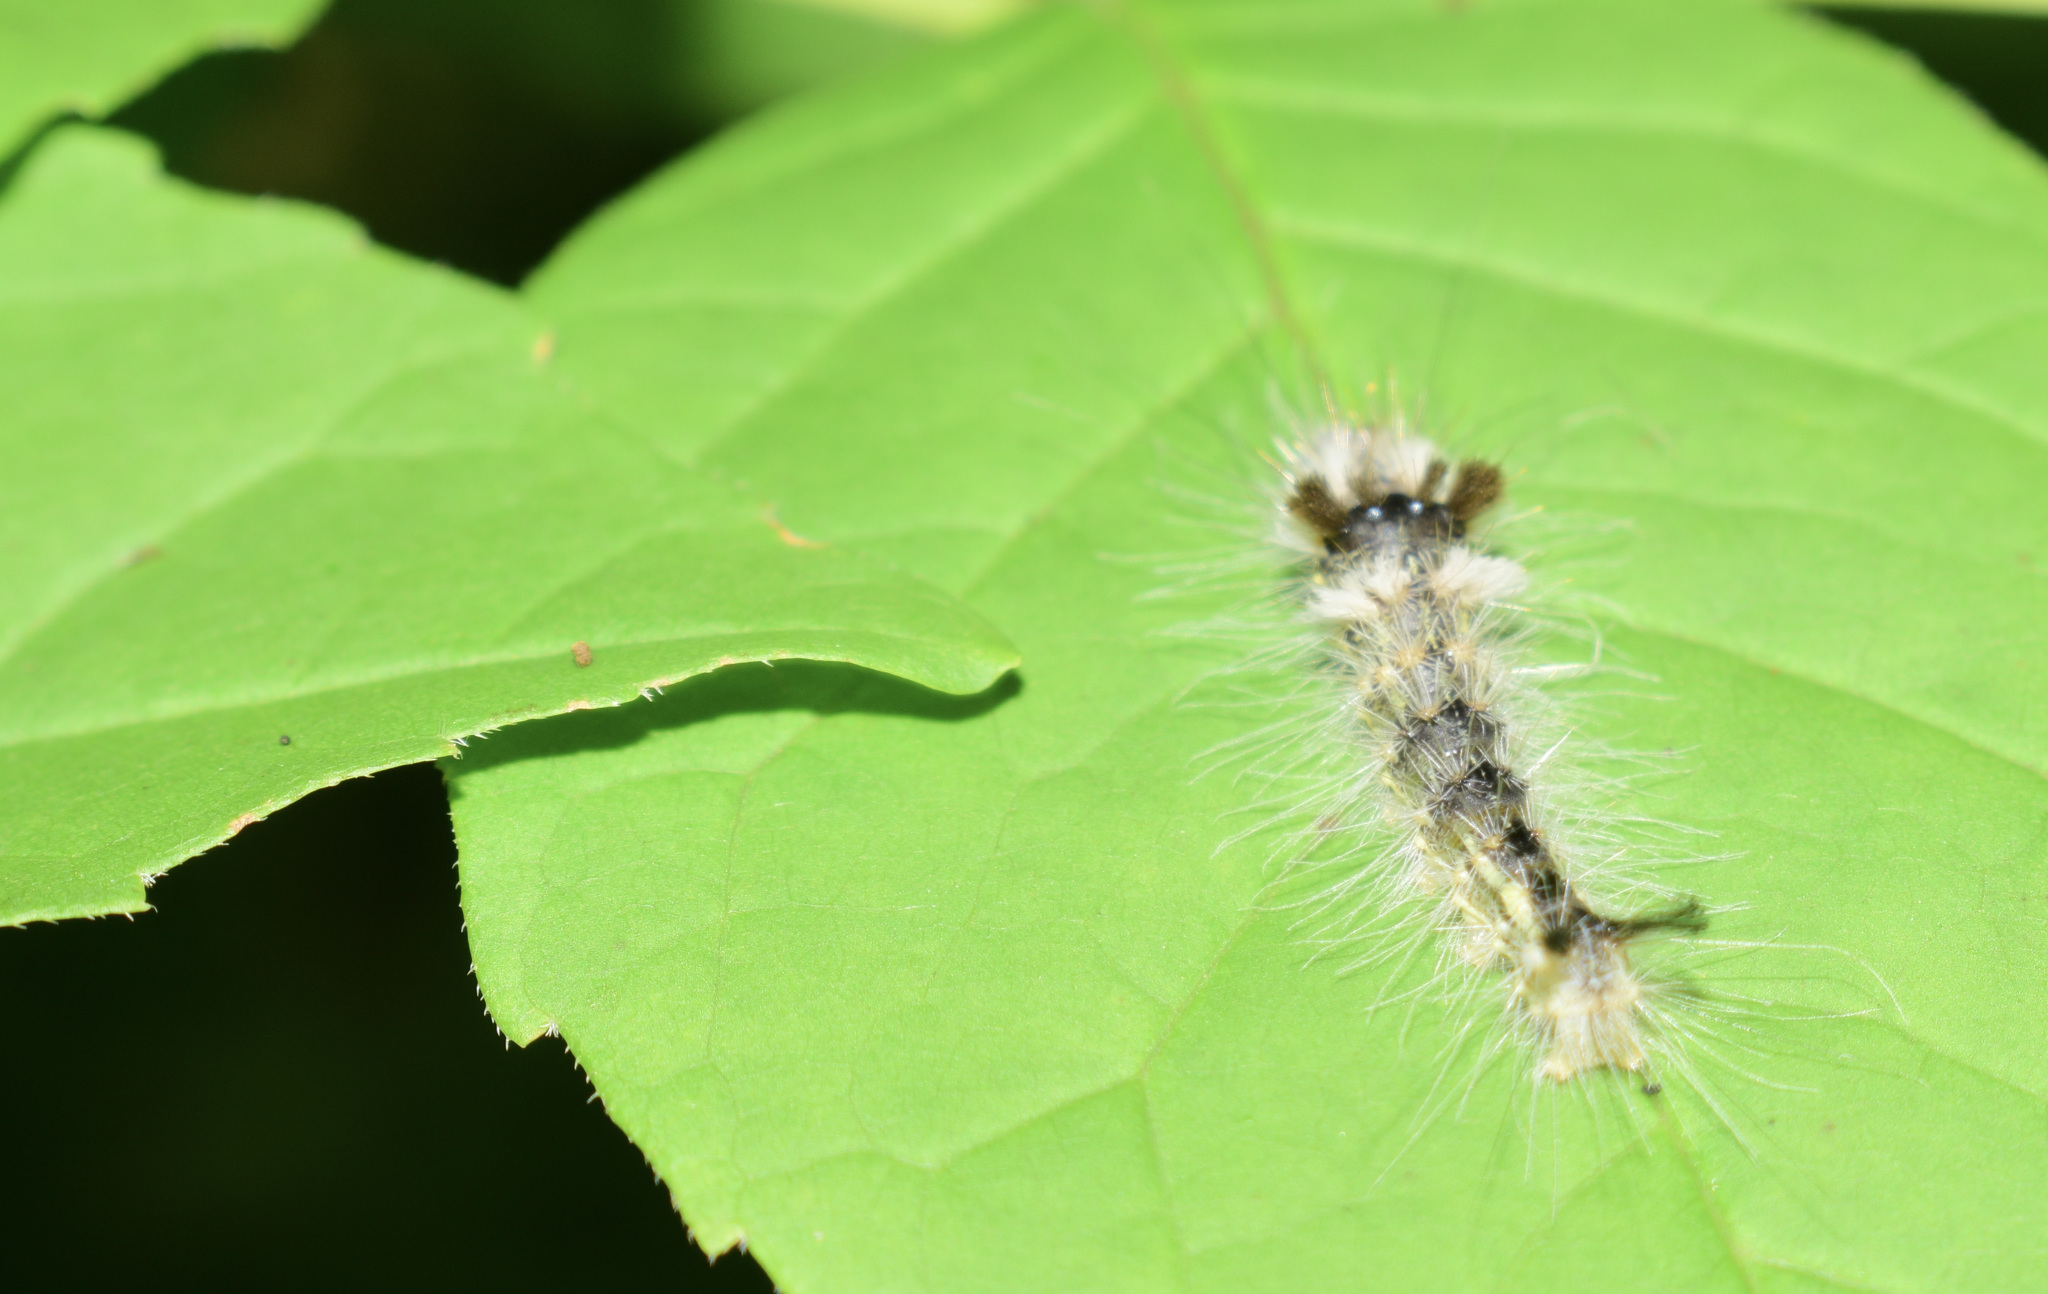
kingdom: Animalia
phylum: Arthropoda
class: Insecta
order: Lepidoptera
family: Noctuidae
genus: Acronicta
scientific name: Acronicta impleta
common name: Powdered dagger
